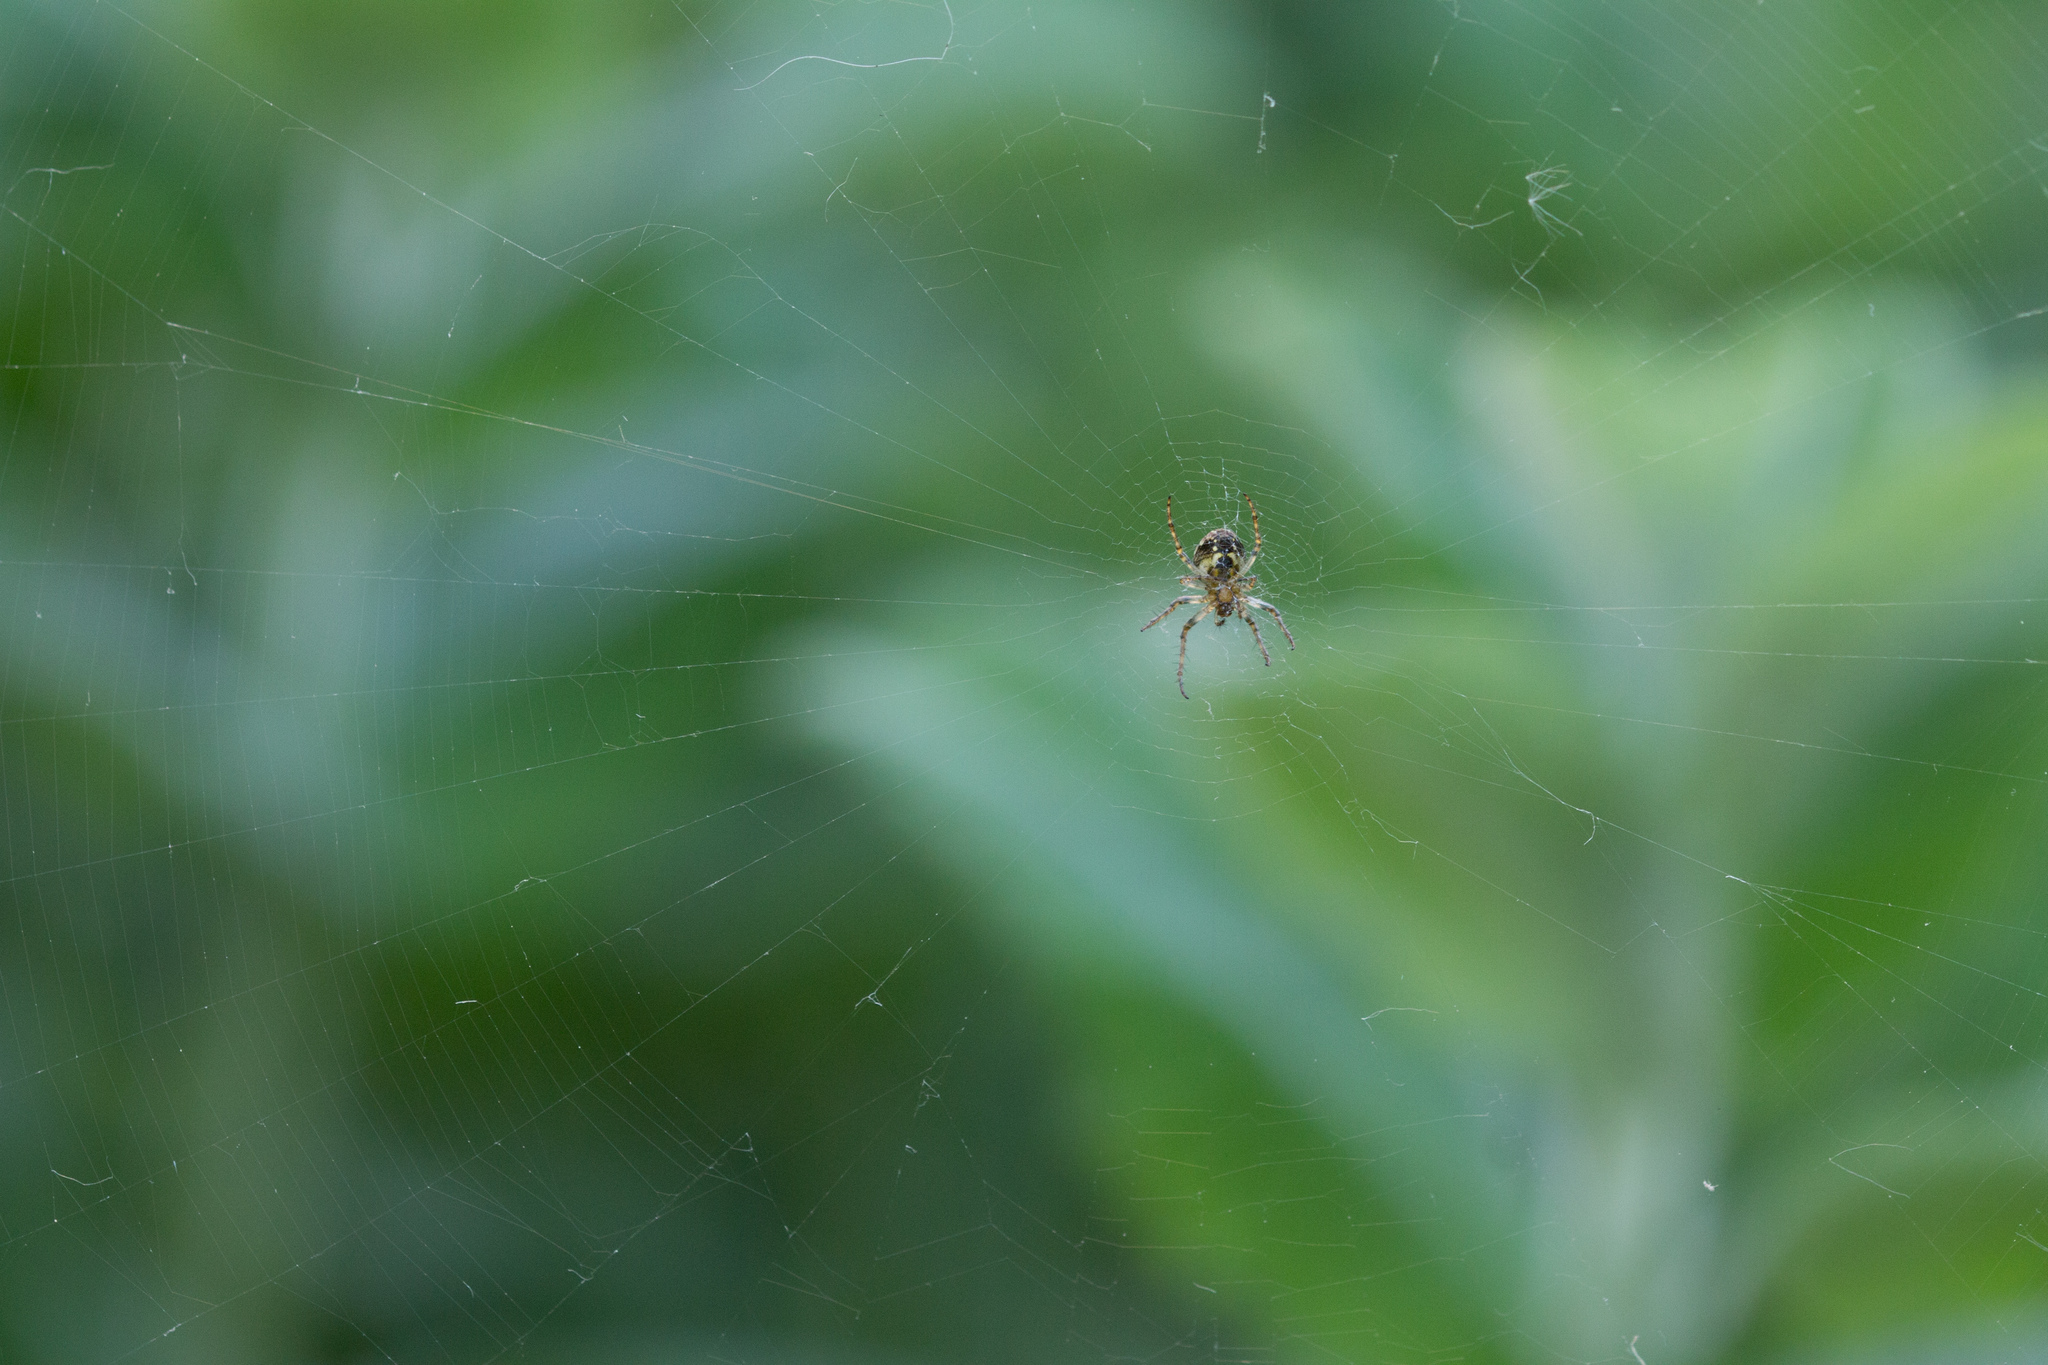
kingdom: Animalia
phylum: Arthropoda
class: Arachnida
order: Araneae
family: Araneidae
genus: Zilla
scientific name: Zilla diodia
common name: Zilla diodia
